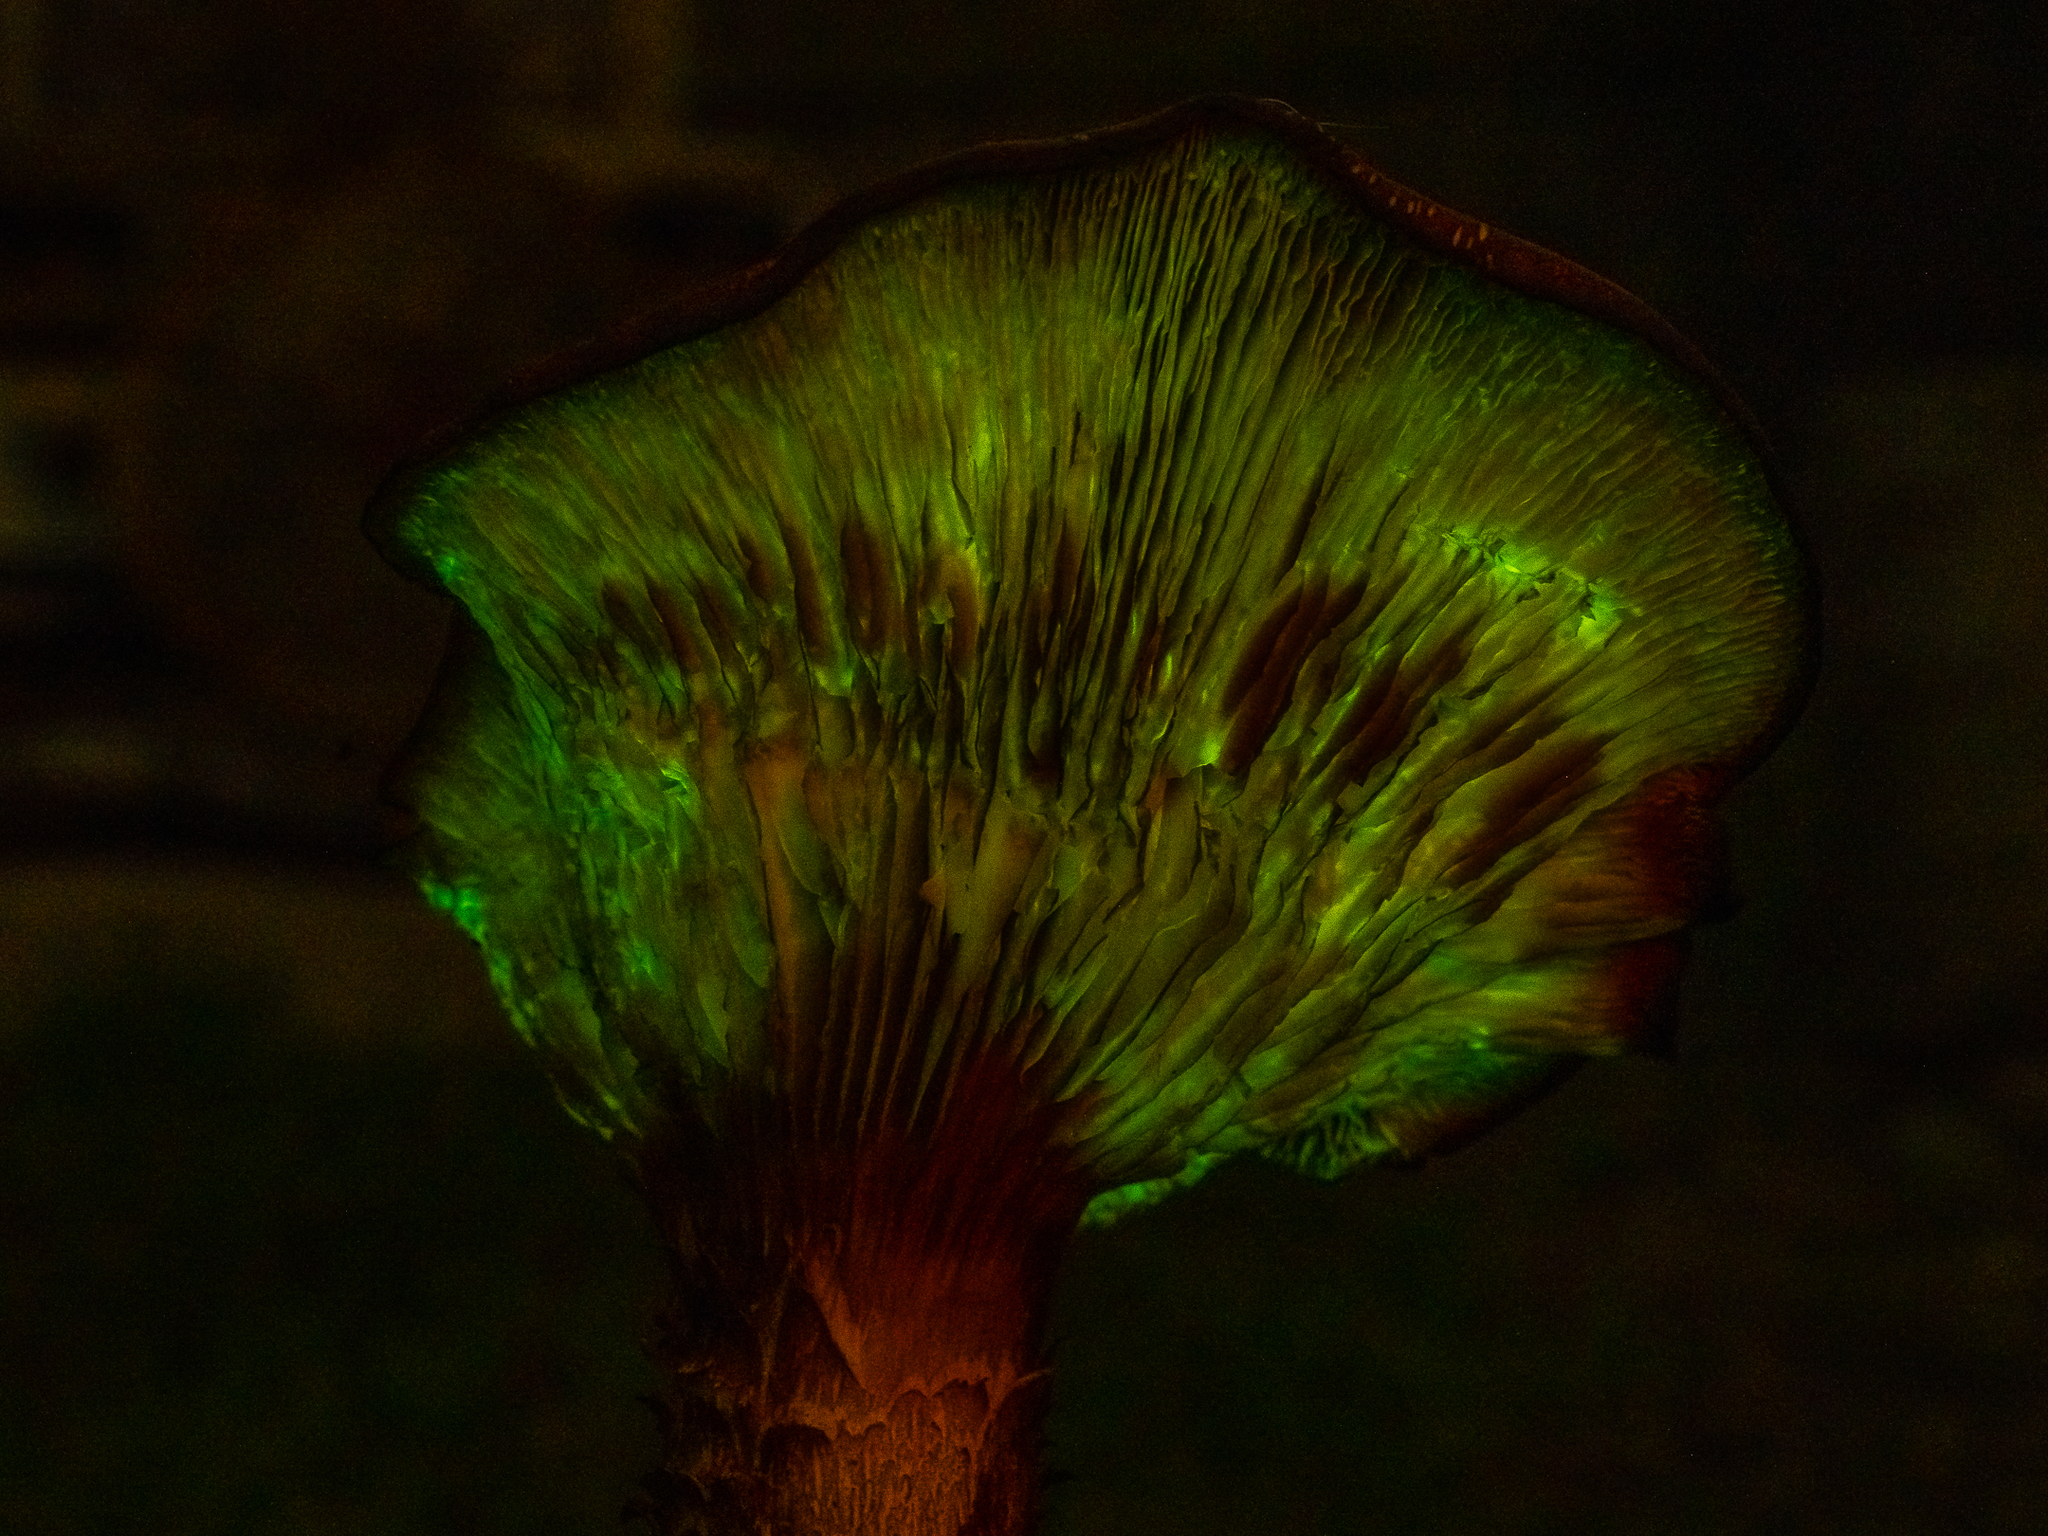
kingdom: Fungi
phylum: Basidiomycota
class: Agaricomycetes
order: Agaricales
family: Omphalotaceae
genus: Omphalotus
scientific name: Omphalotus subilludens
